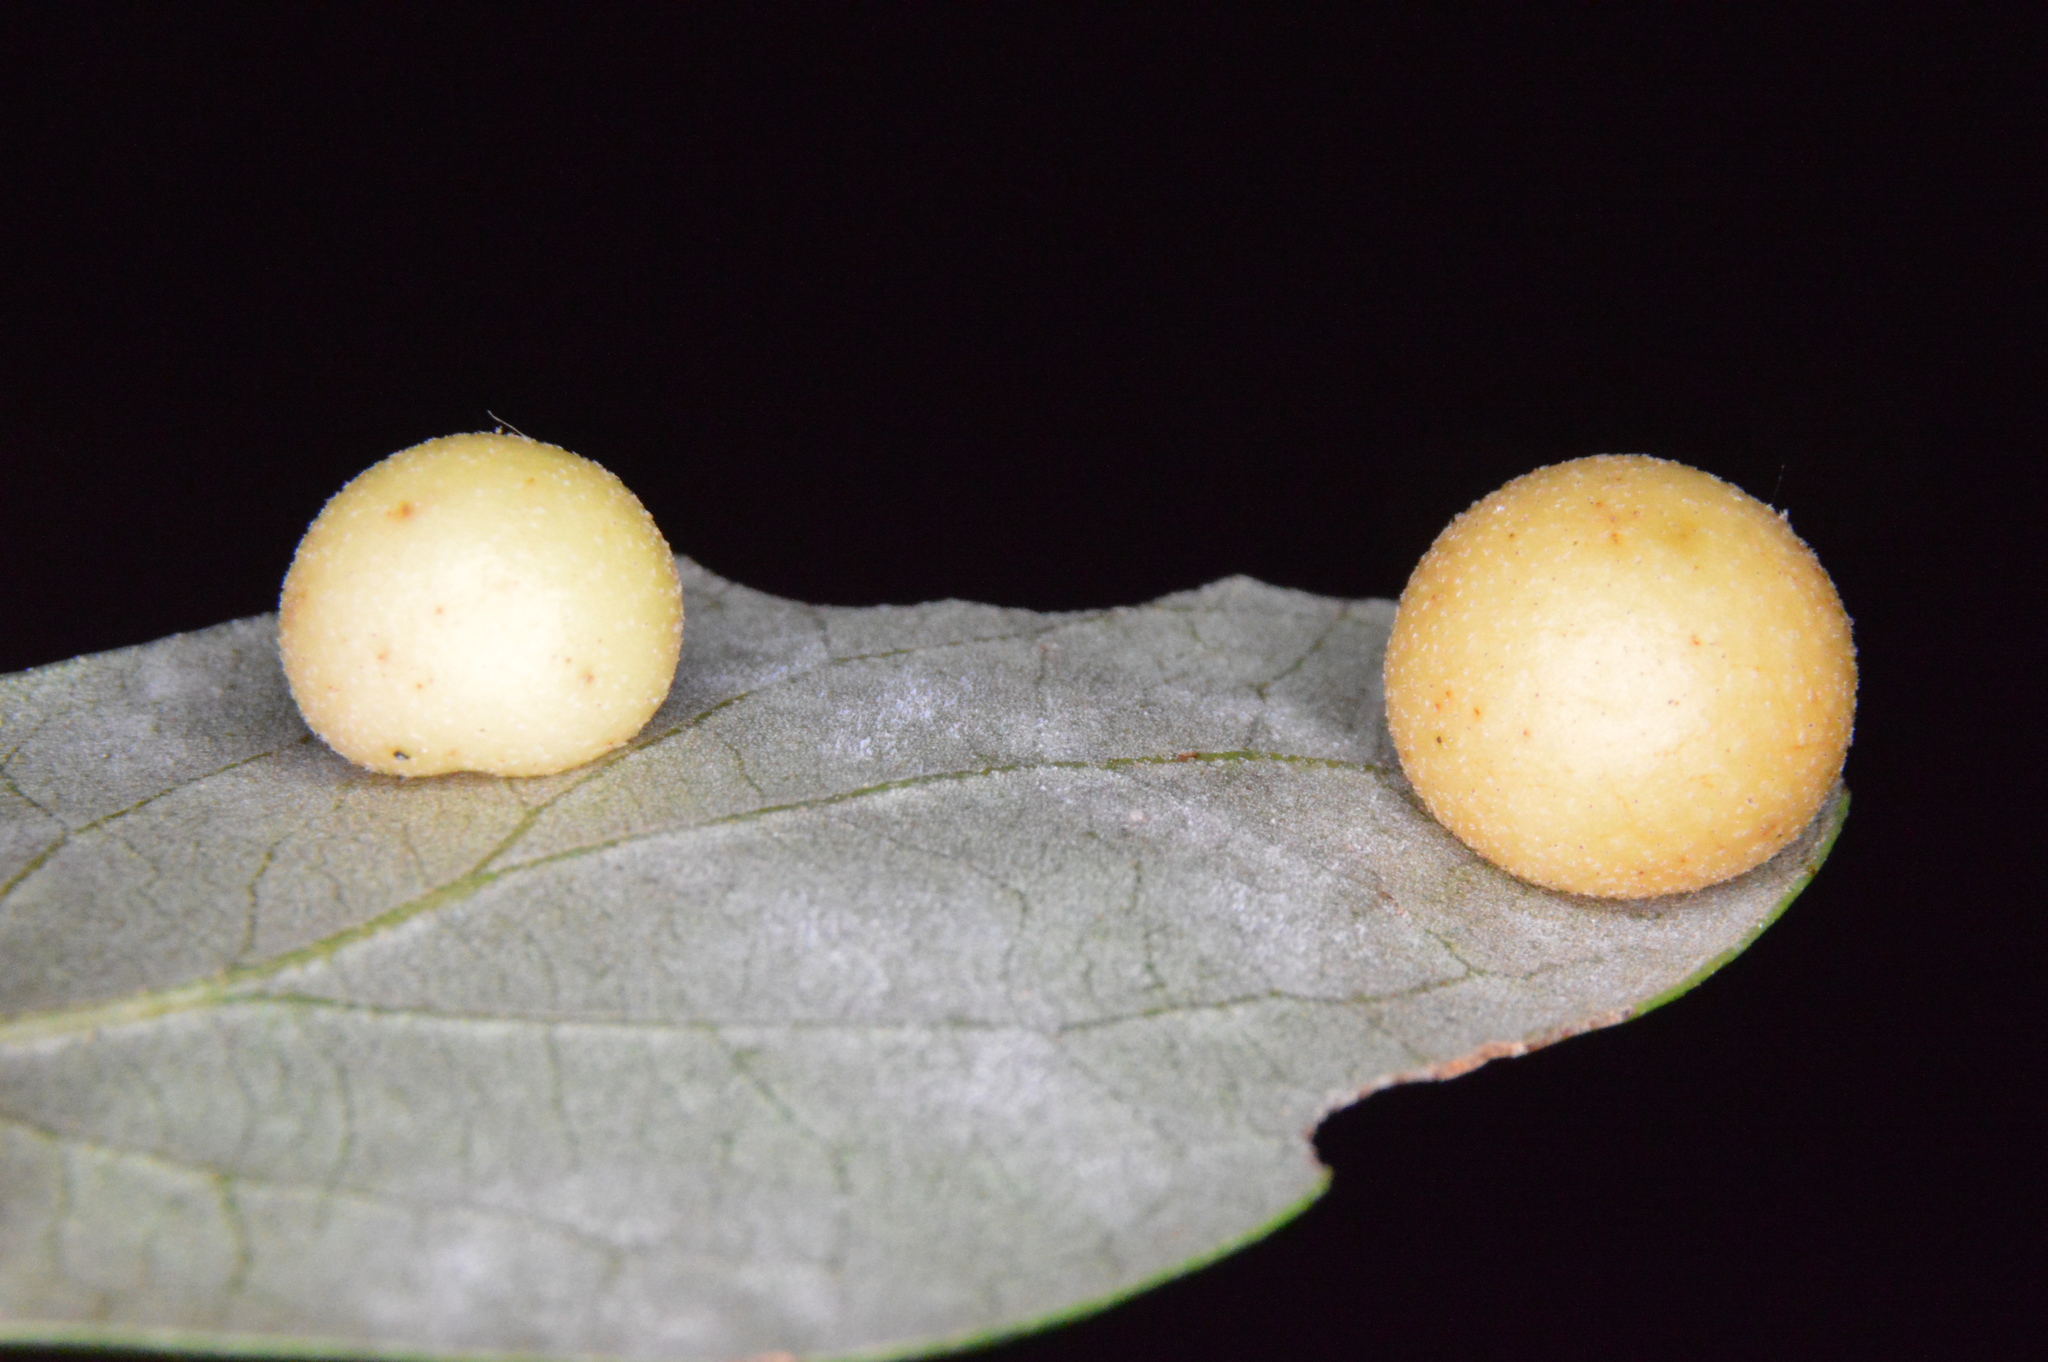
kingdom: Animalia
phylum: Arthropoda
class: Insecta
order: Hymenoptera
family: Cynipidae
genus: Belonocnema
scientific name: Belonocnema kinseyi
